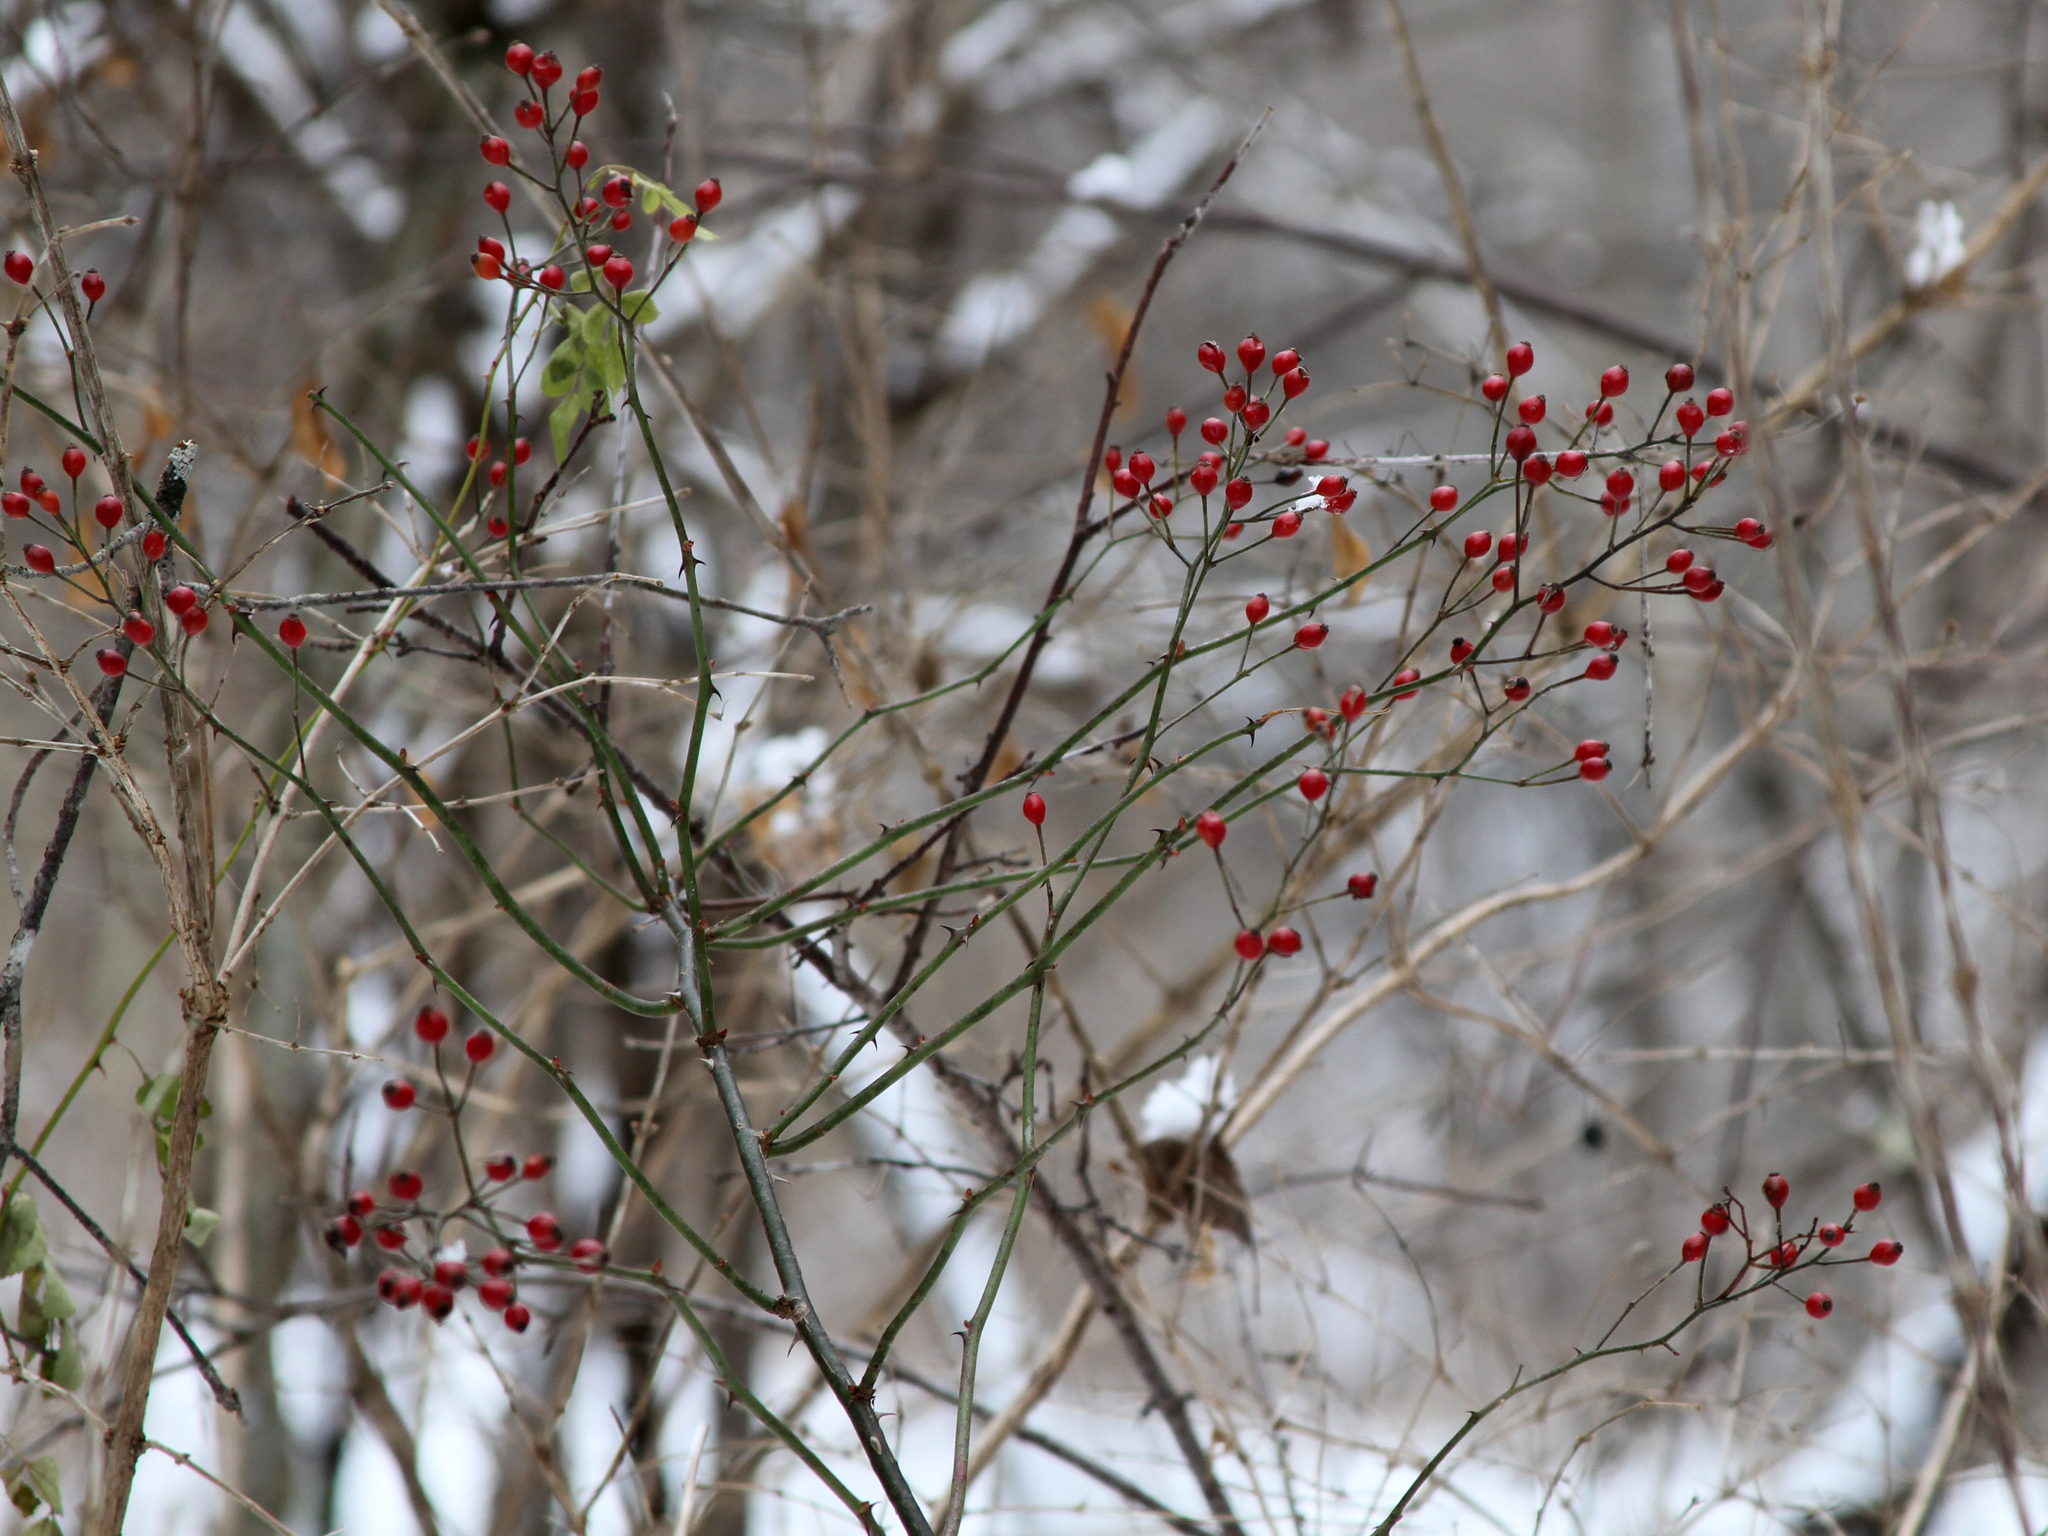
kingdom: Plantae
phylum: Tracheophyta
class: Magnoliopsida
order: Rosales
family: Rosaceae
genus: Rosa
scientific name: Rosa multiflora
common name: Multiflora rose
